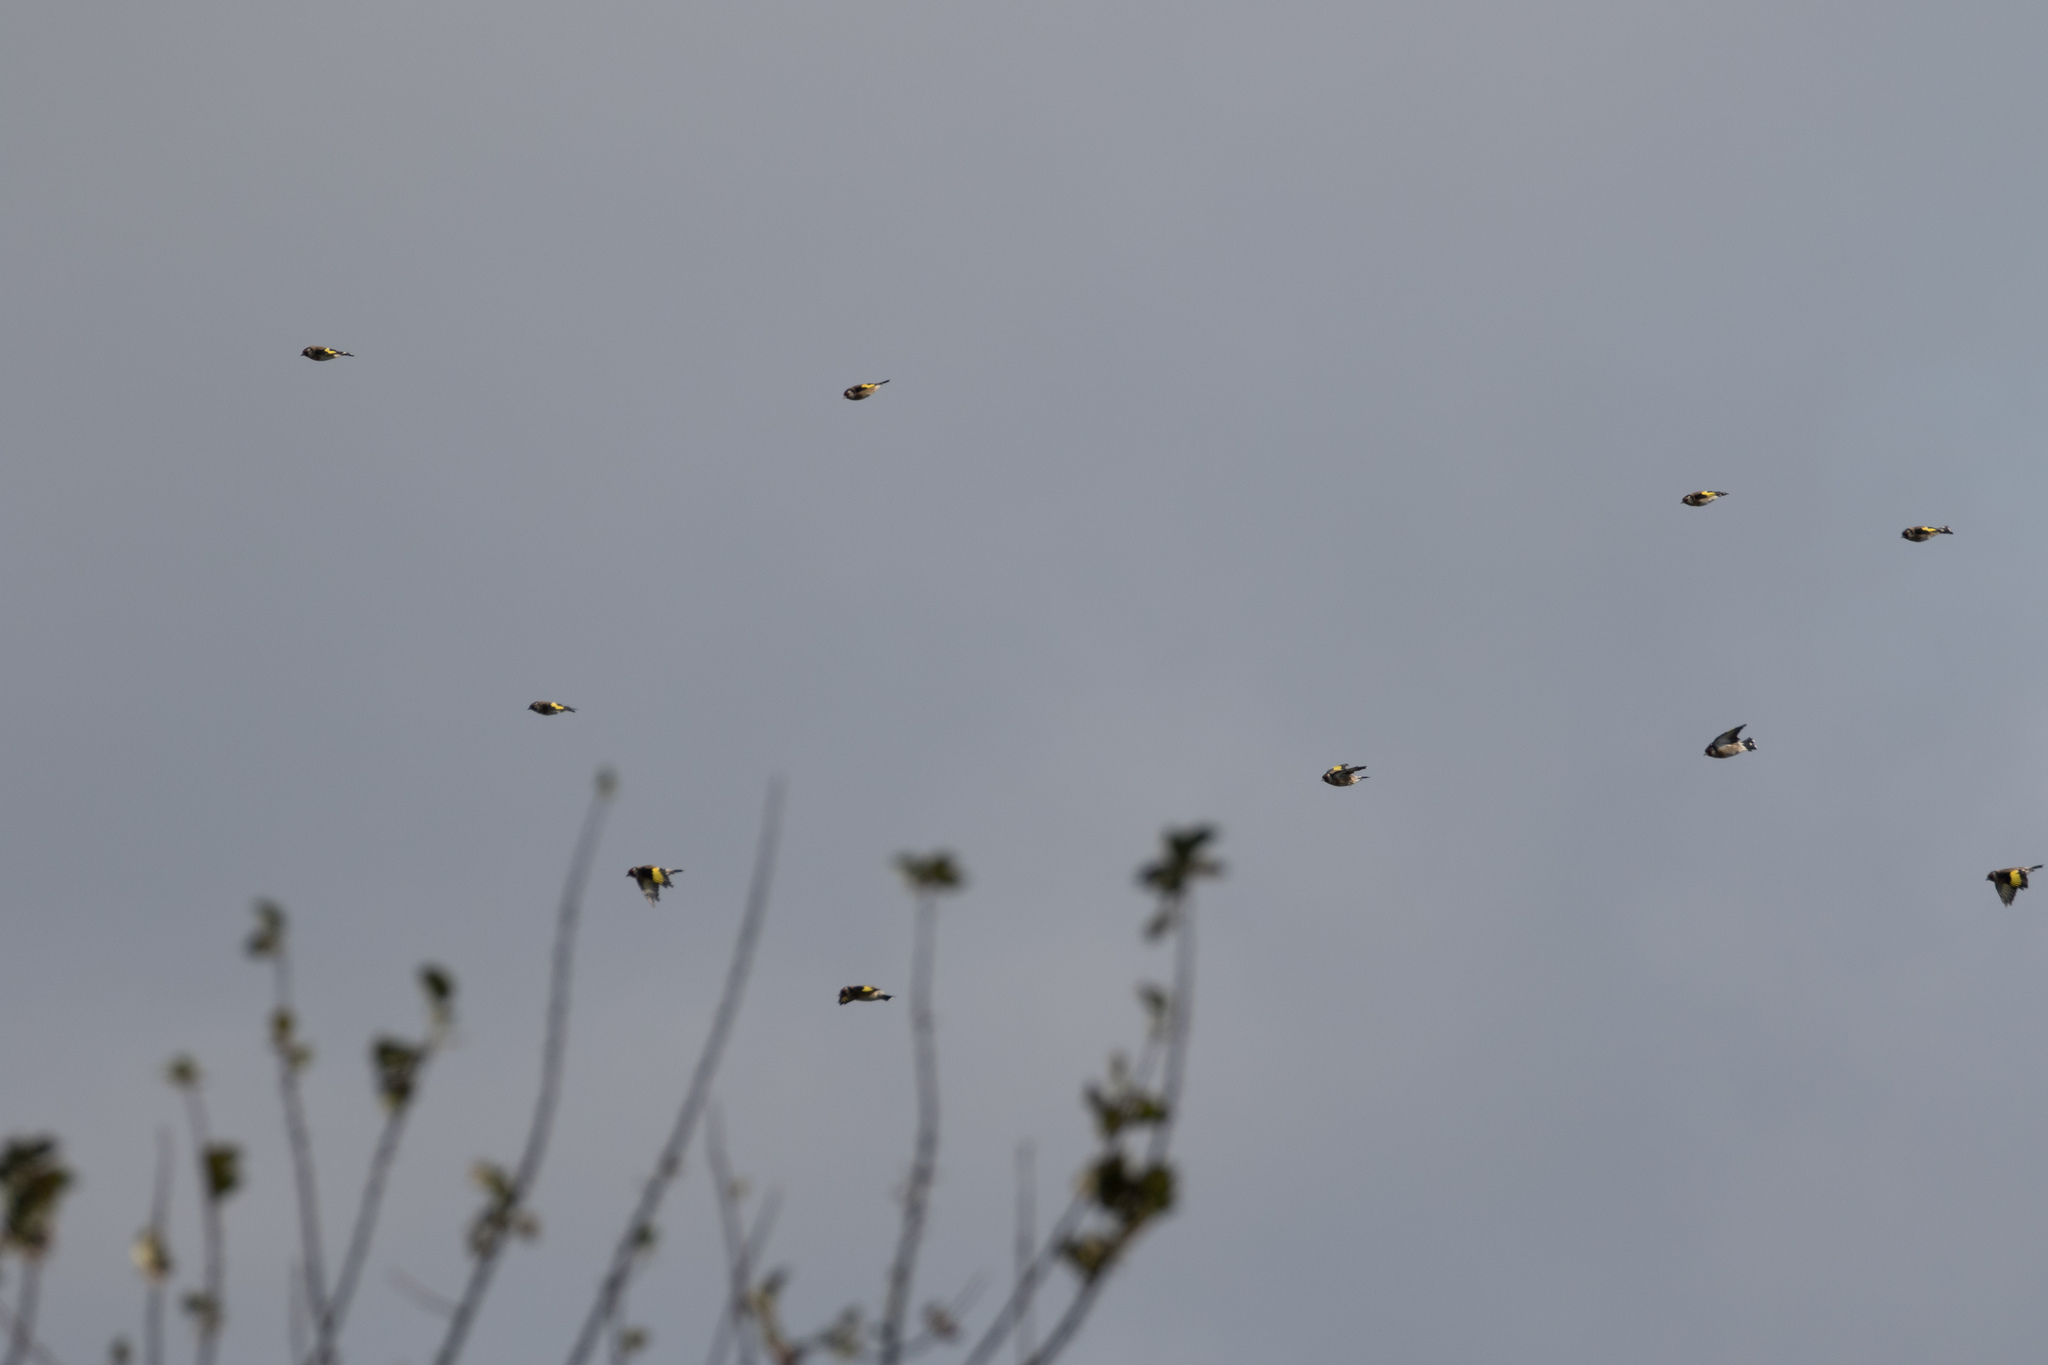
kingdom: Animalia
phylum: Chordata
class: Aves
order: Passeriformes
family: Fringillidae
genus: Carduelis
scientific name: Carduelis carduelis
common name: European goldfinch
